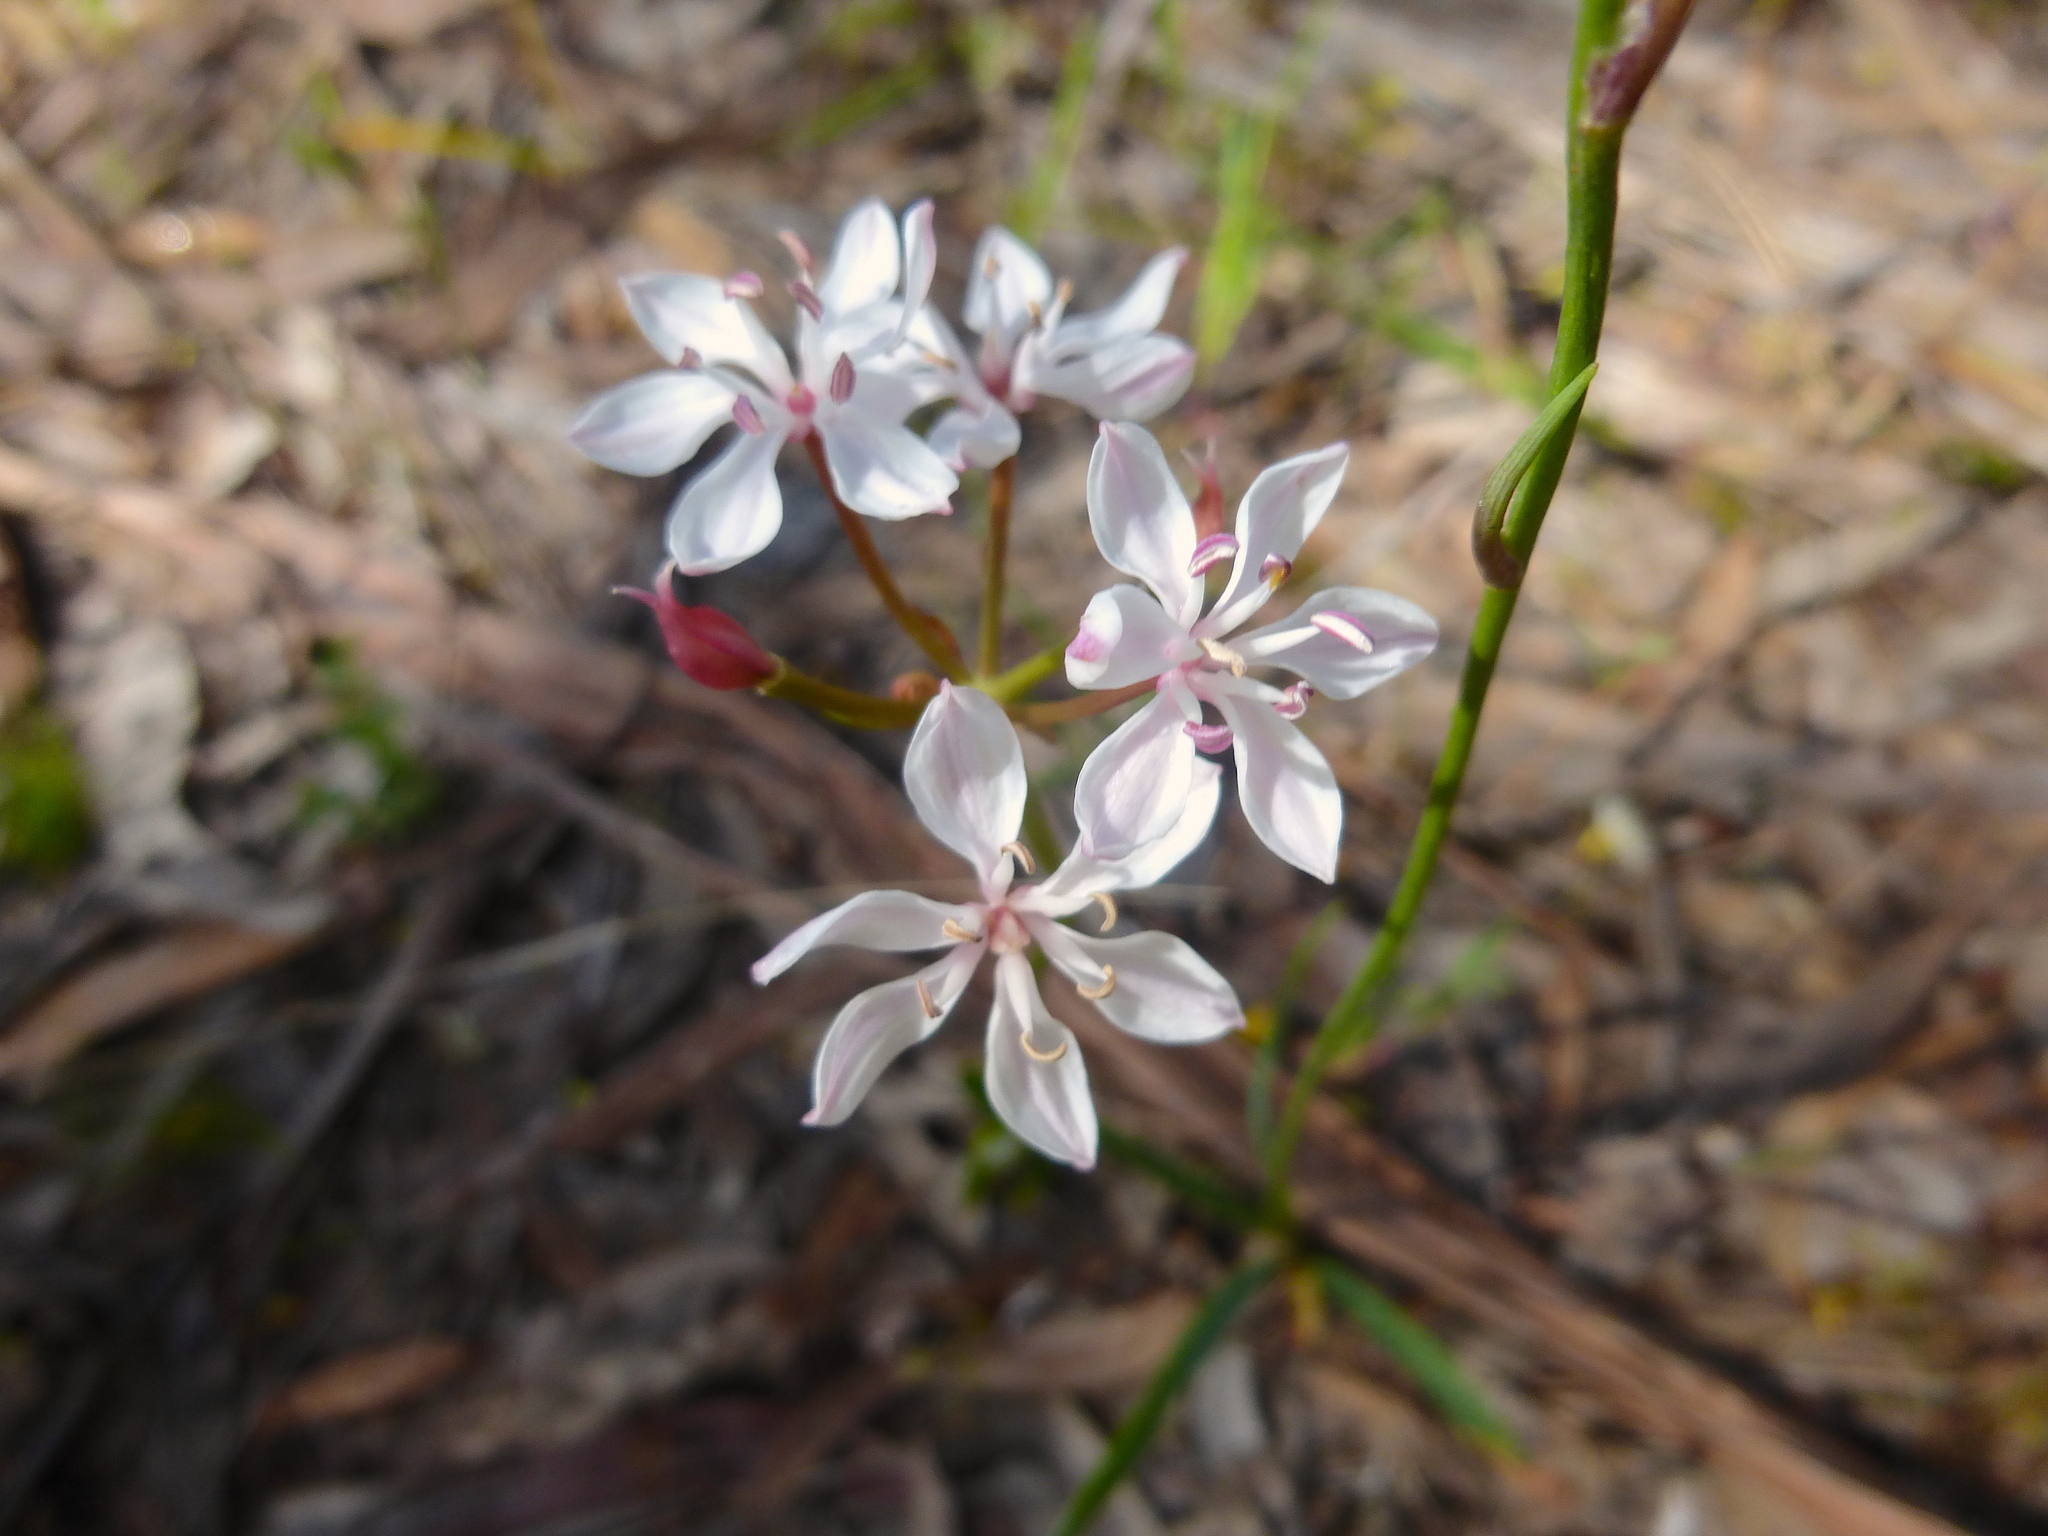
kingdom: Plantae
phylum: Tracheophyta
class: Liliopsida
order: Liliales
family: Colchicaceae
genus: Burchardia
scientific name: Burchardia umbellata
